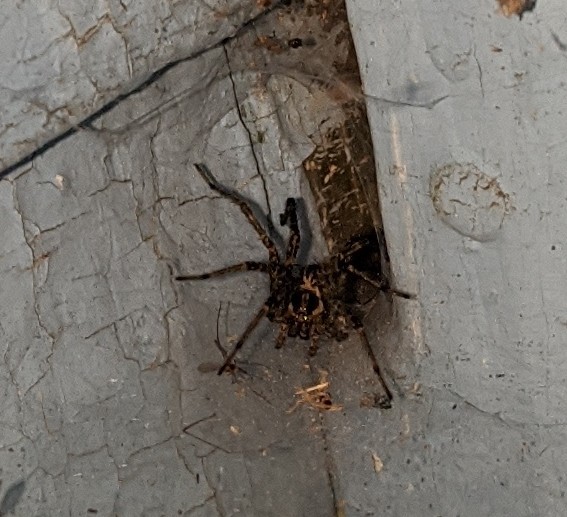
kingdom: Animalia
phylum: Arthropoda
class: Arachnida
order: Araneae
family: Agelenidae
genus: Agelenopsis
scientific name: Agelenopsis
